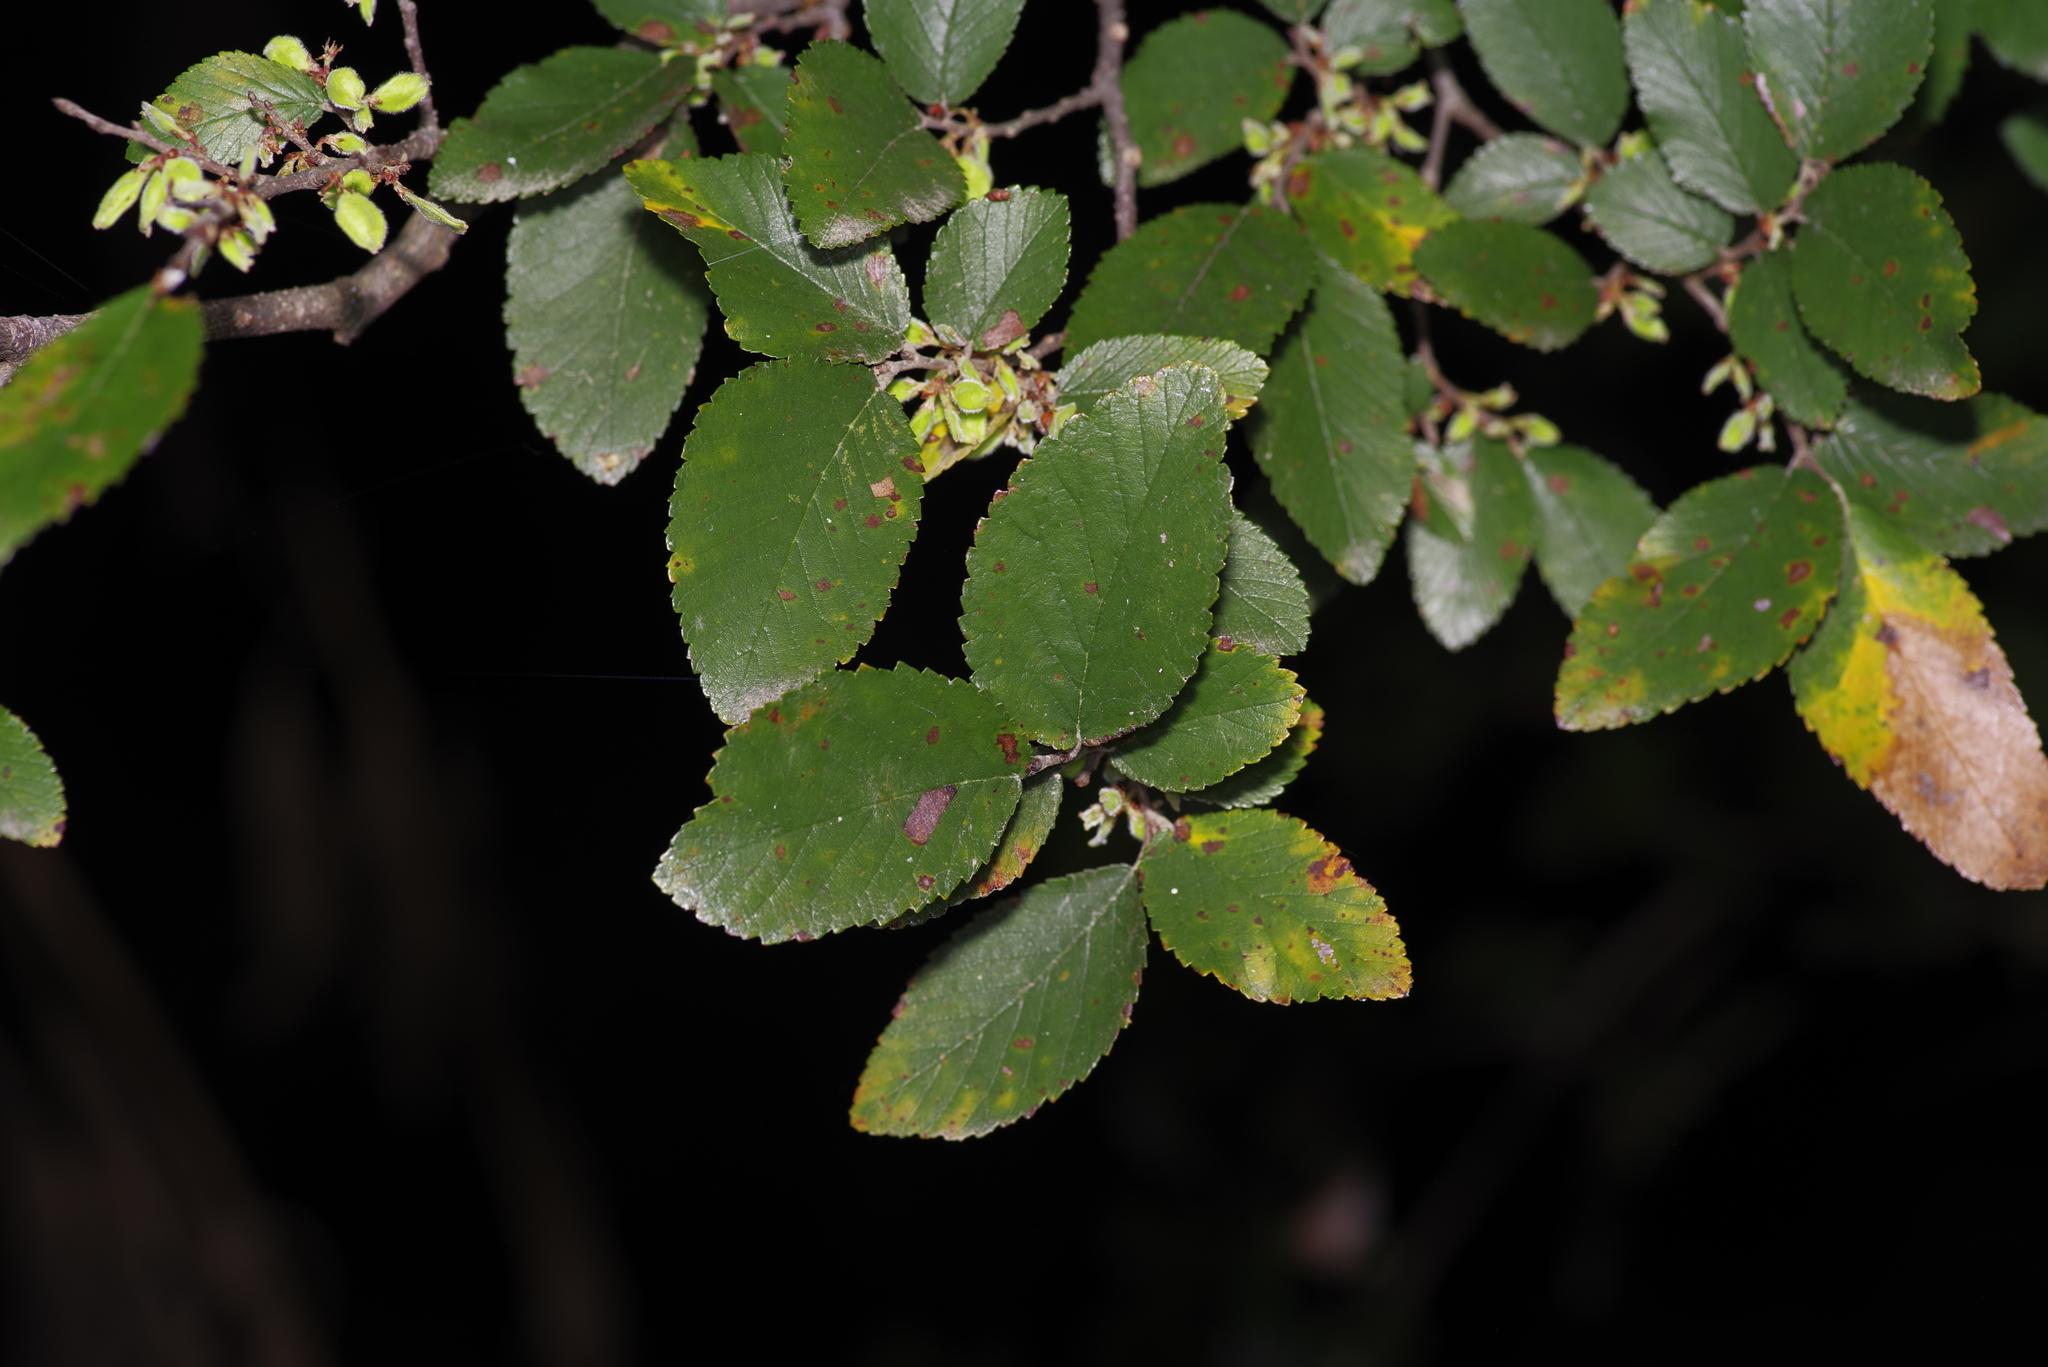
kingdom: Plantae
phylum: Tracheophyta
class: Magnoliopsida
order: Rosales
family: Ulmaceae
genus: Ulmus
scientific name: Ulmus crassifolia
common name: Basket elm
